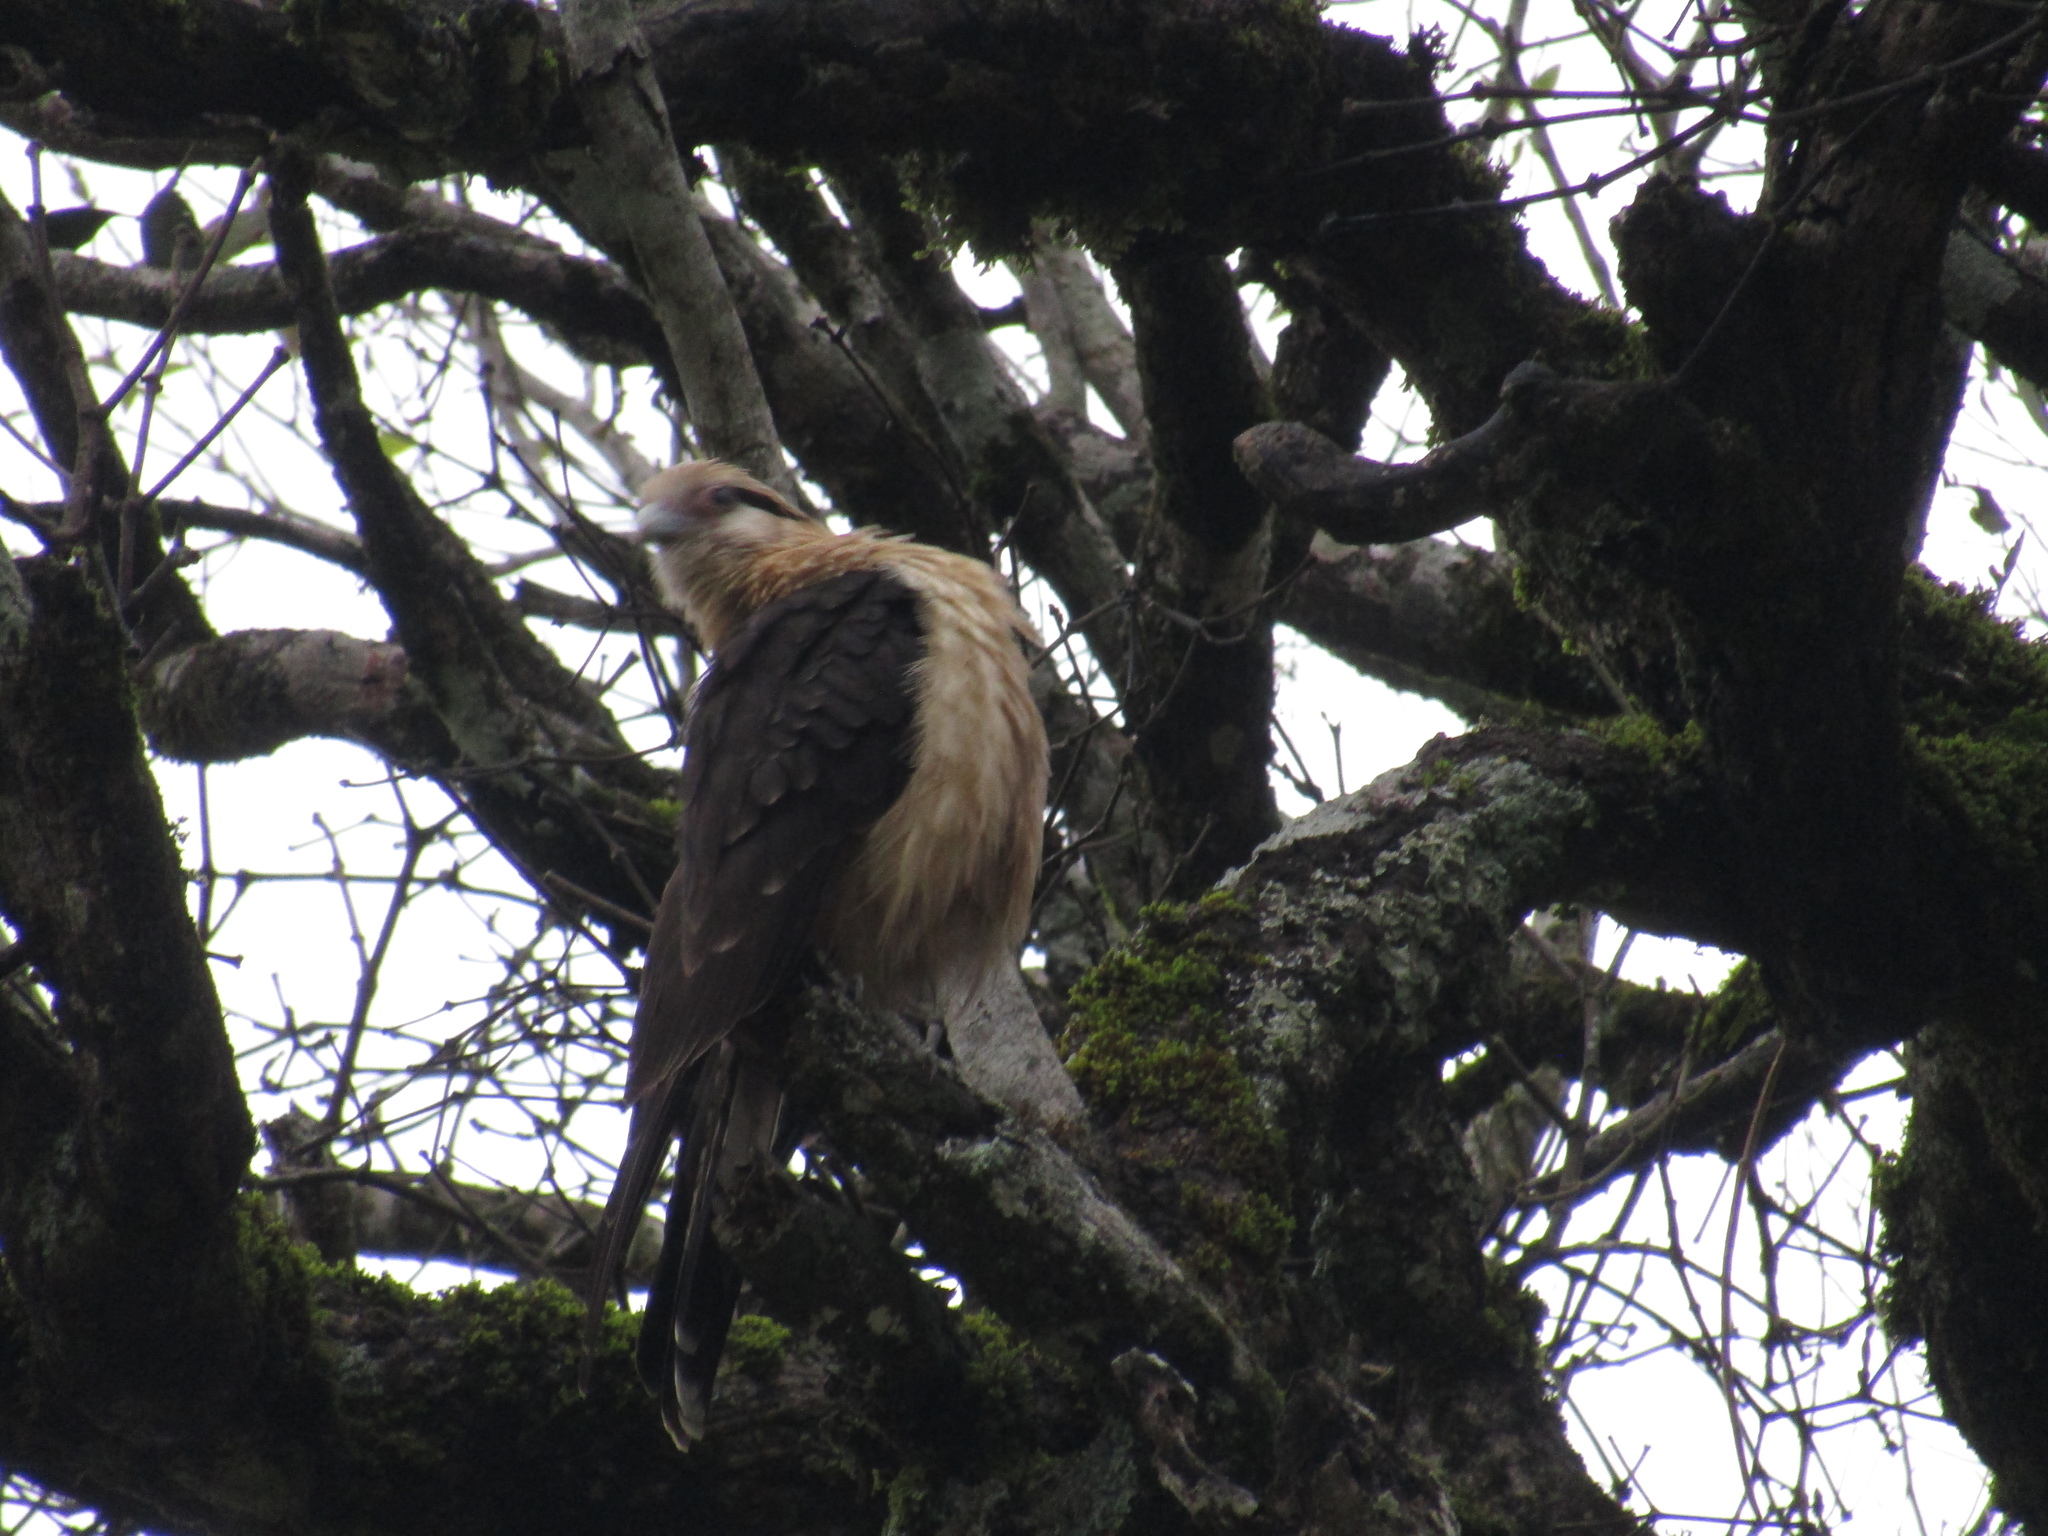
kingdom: Animalia
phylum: Chordata
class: Aves
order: Falconiformes
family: Falconidae
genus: Daptrius
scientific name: Daptrius
